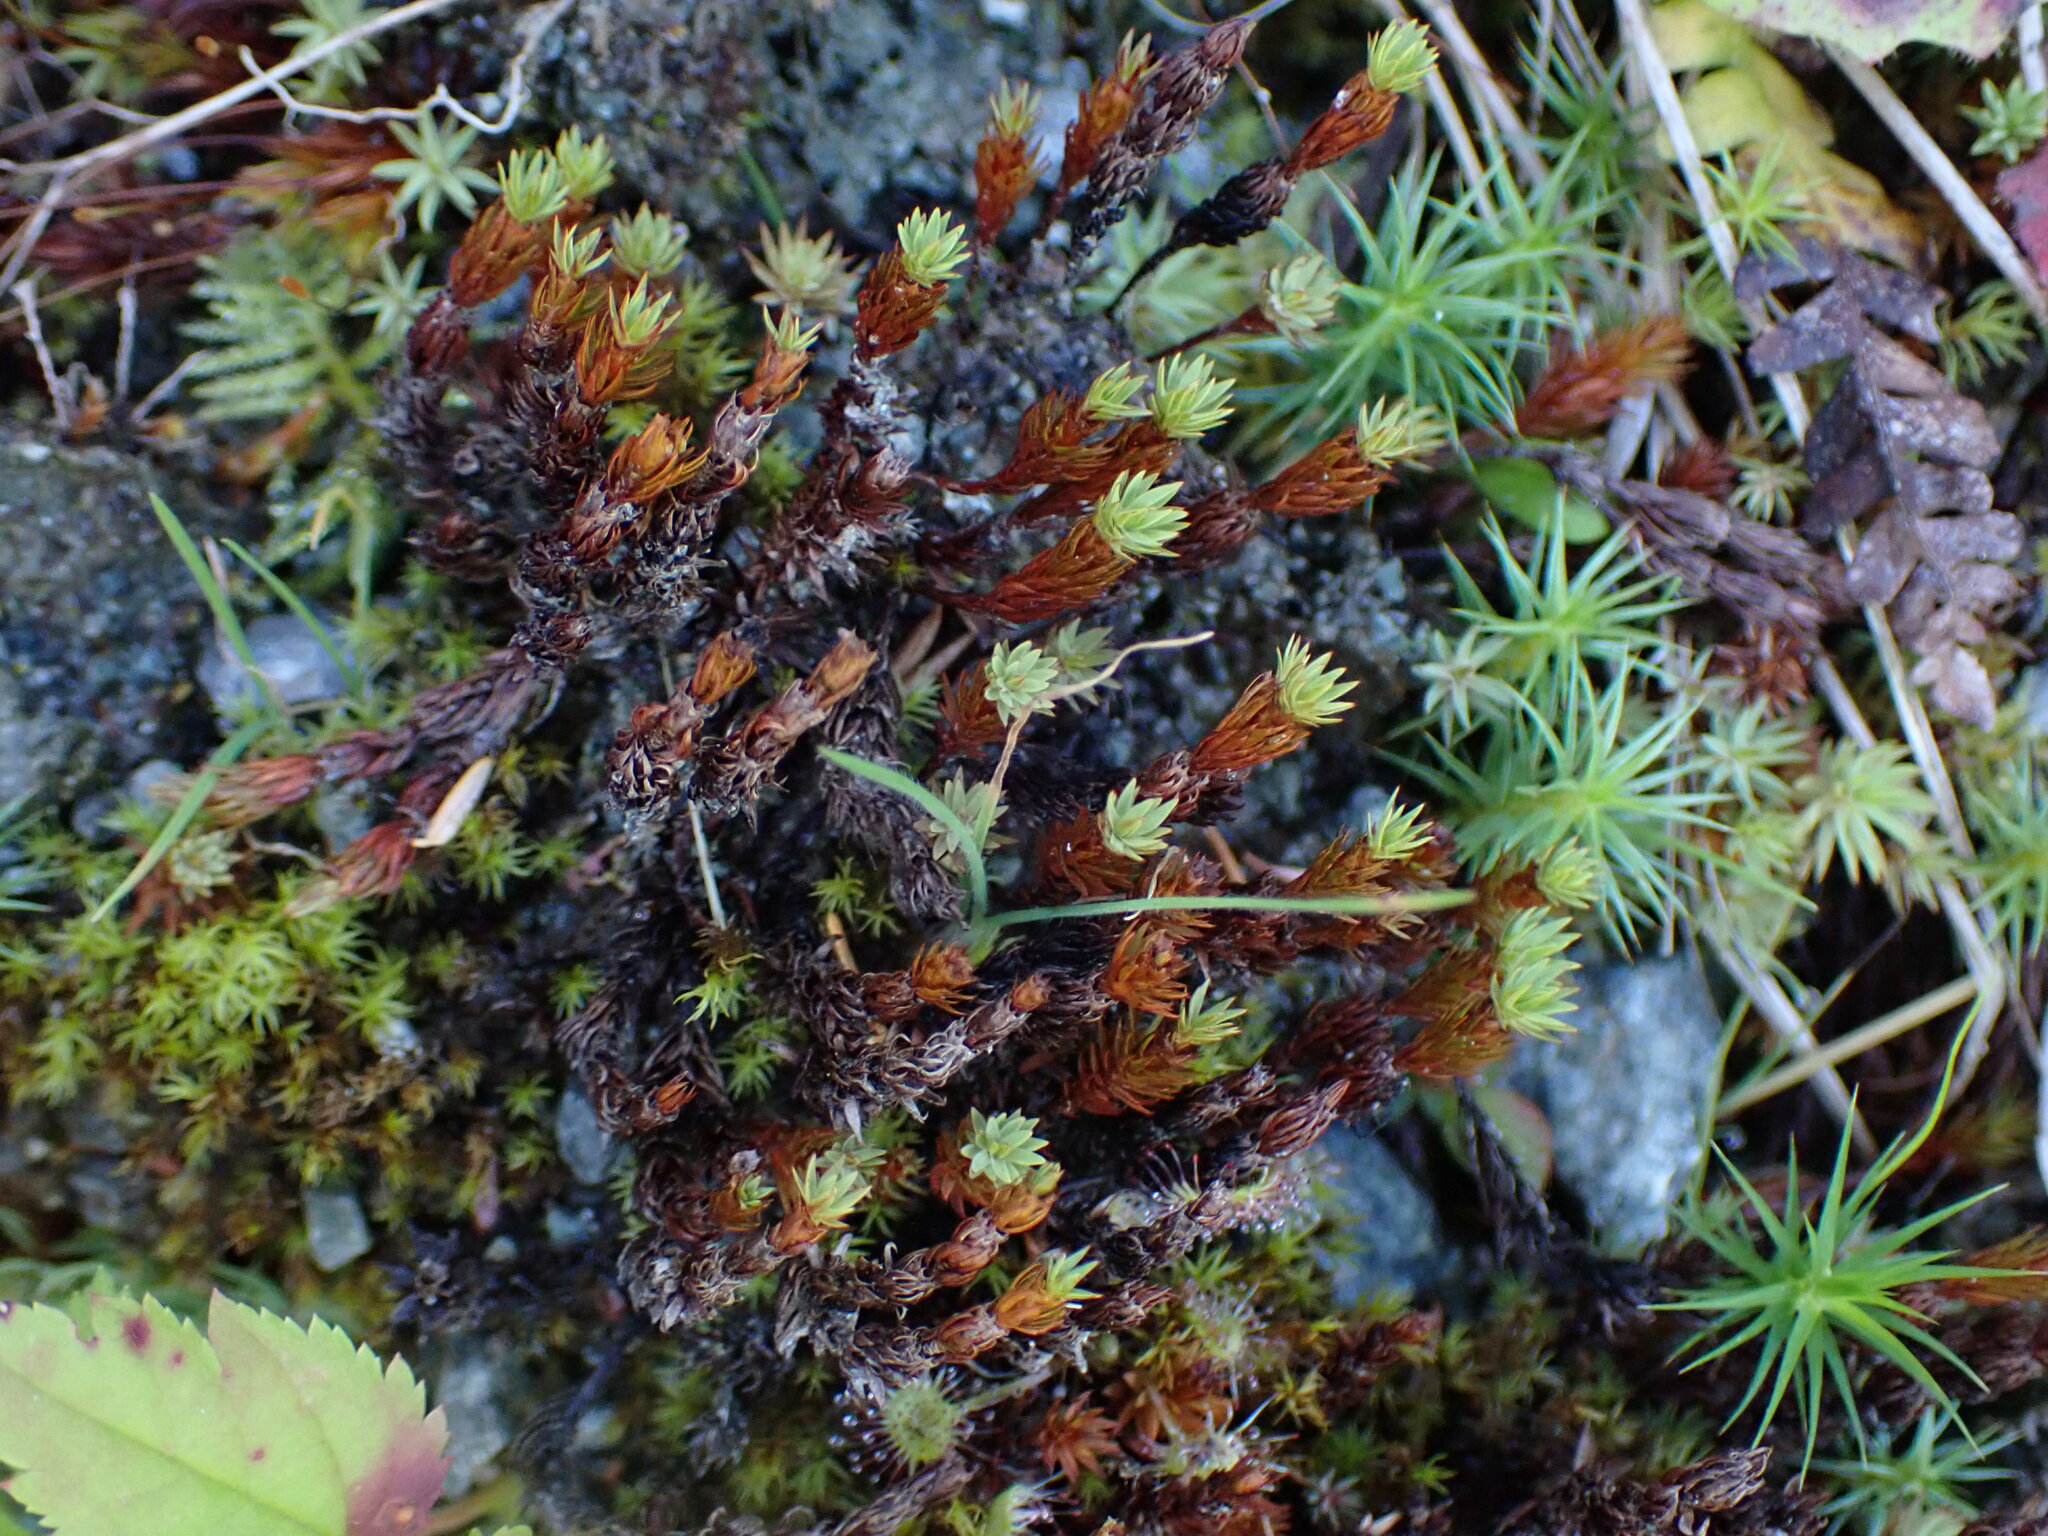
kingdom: Plantae
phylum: Bryophyta
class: Polytrichopsida
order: Polytrichales
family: Polytrichaceae
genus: Pogonatum
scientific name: Pogonatum urnigerum
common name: Urn hair moss
